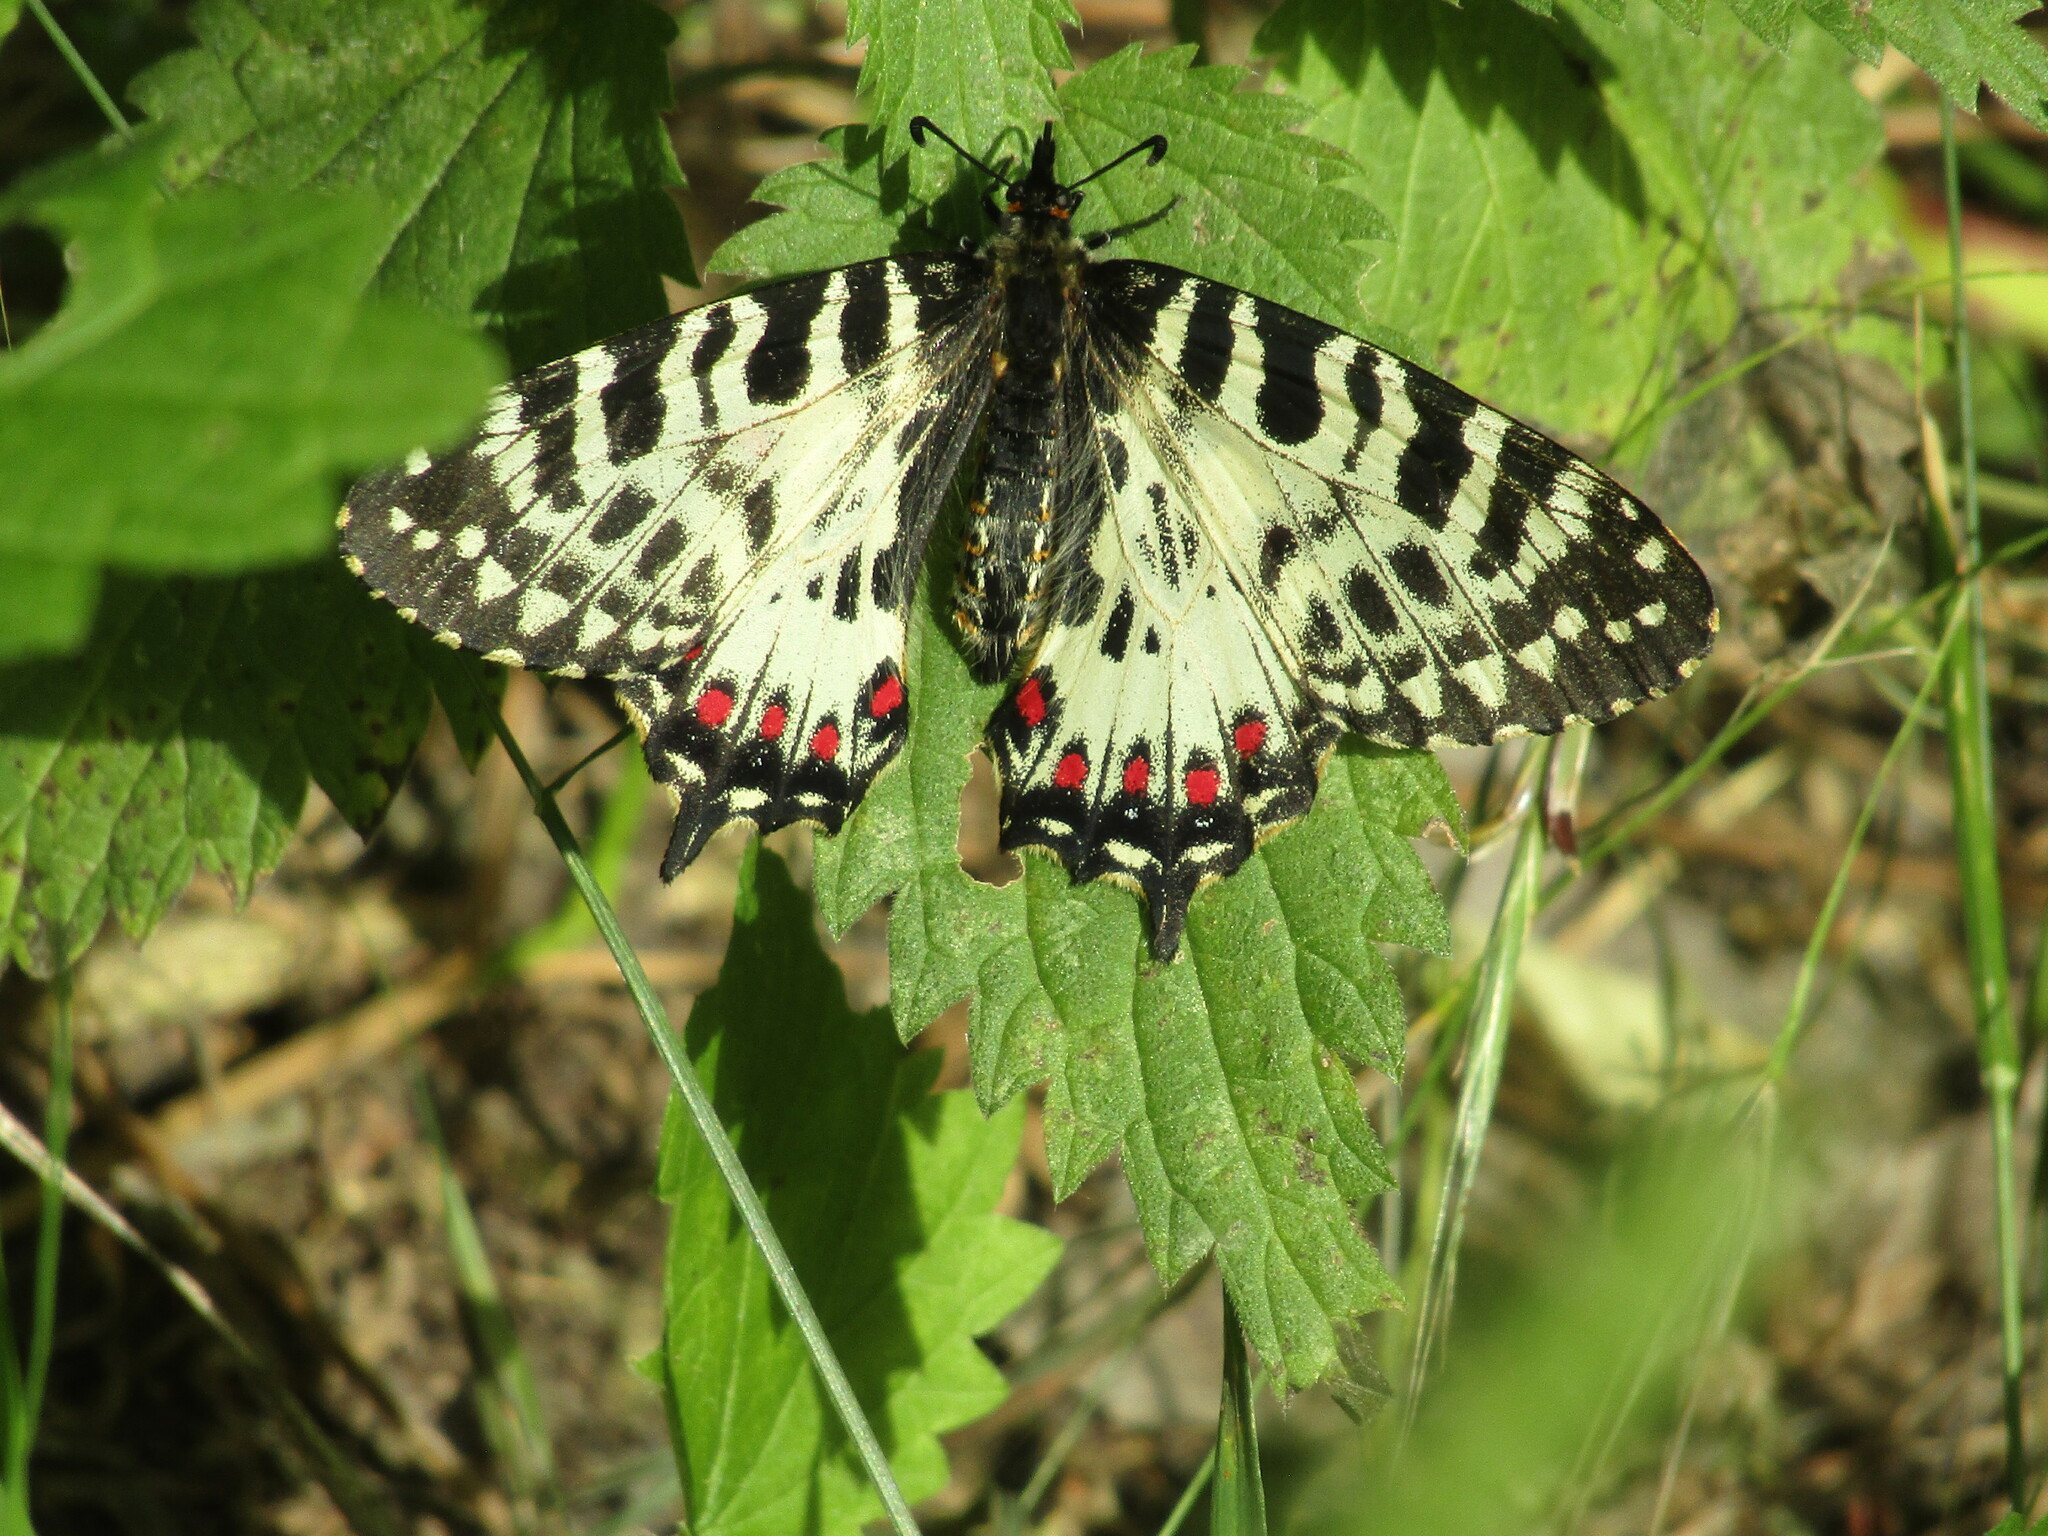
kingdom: Animalia
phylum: Arthropoda
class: Insecta
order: Lepidoptera
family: Papilionidae
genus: Zerynthia
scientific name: Zerynthia cerisy
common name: Eastern festoon
